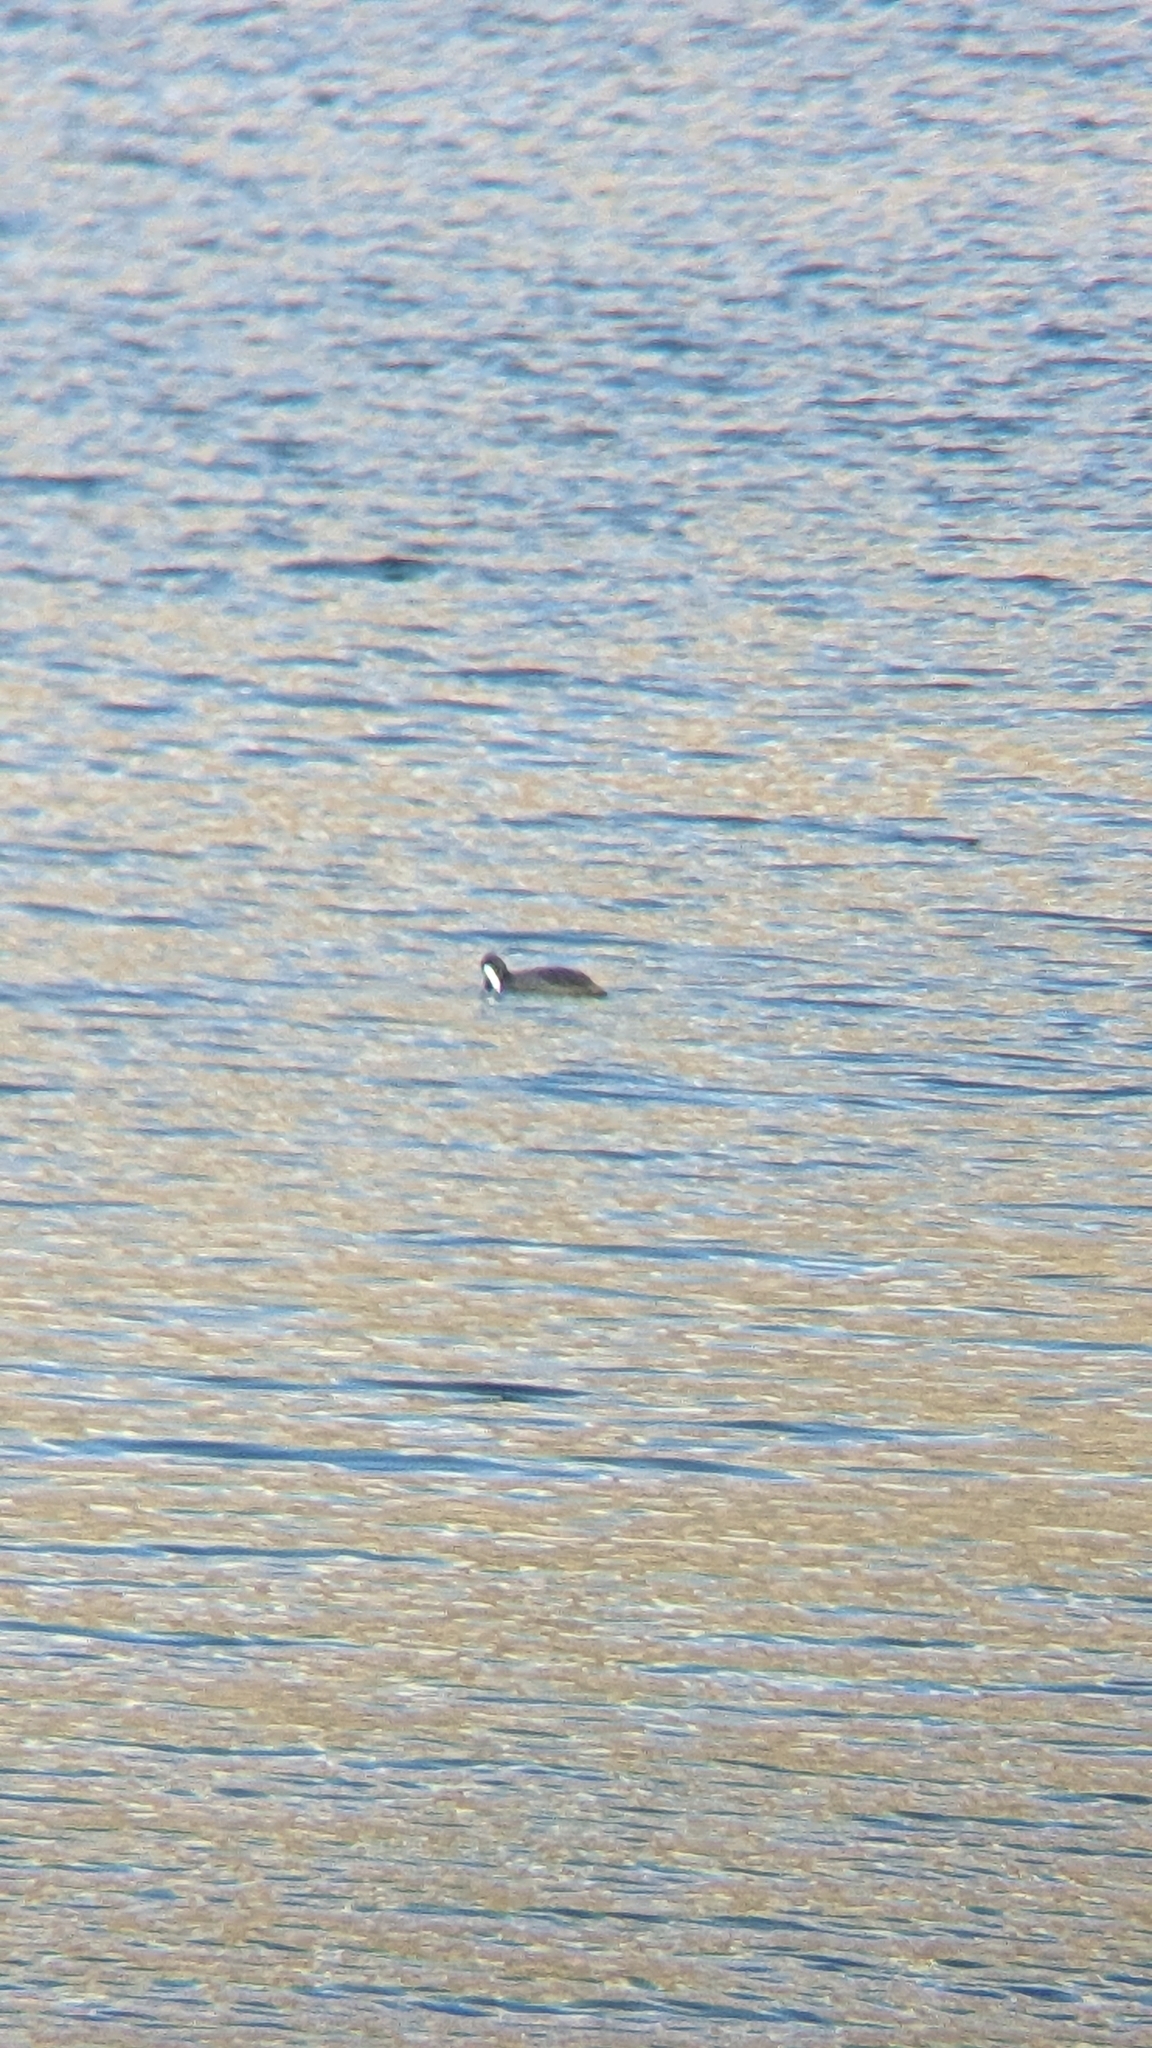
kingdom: Animalia
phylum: Chordata
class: Aves
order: Gruiformes
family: Rallidae
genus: Fulica
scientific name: Fulica atra
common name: Eurasian coot
